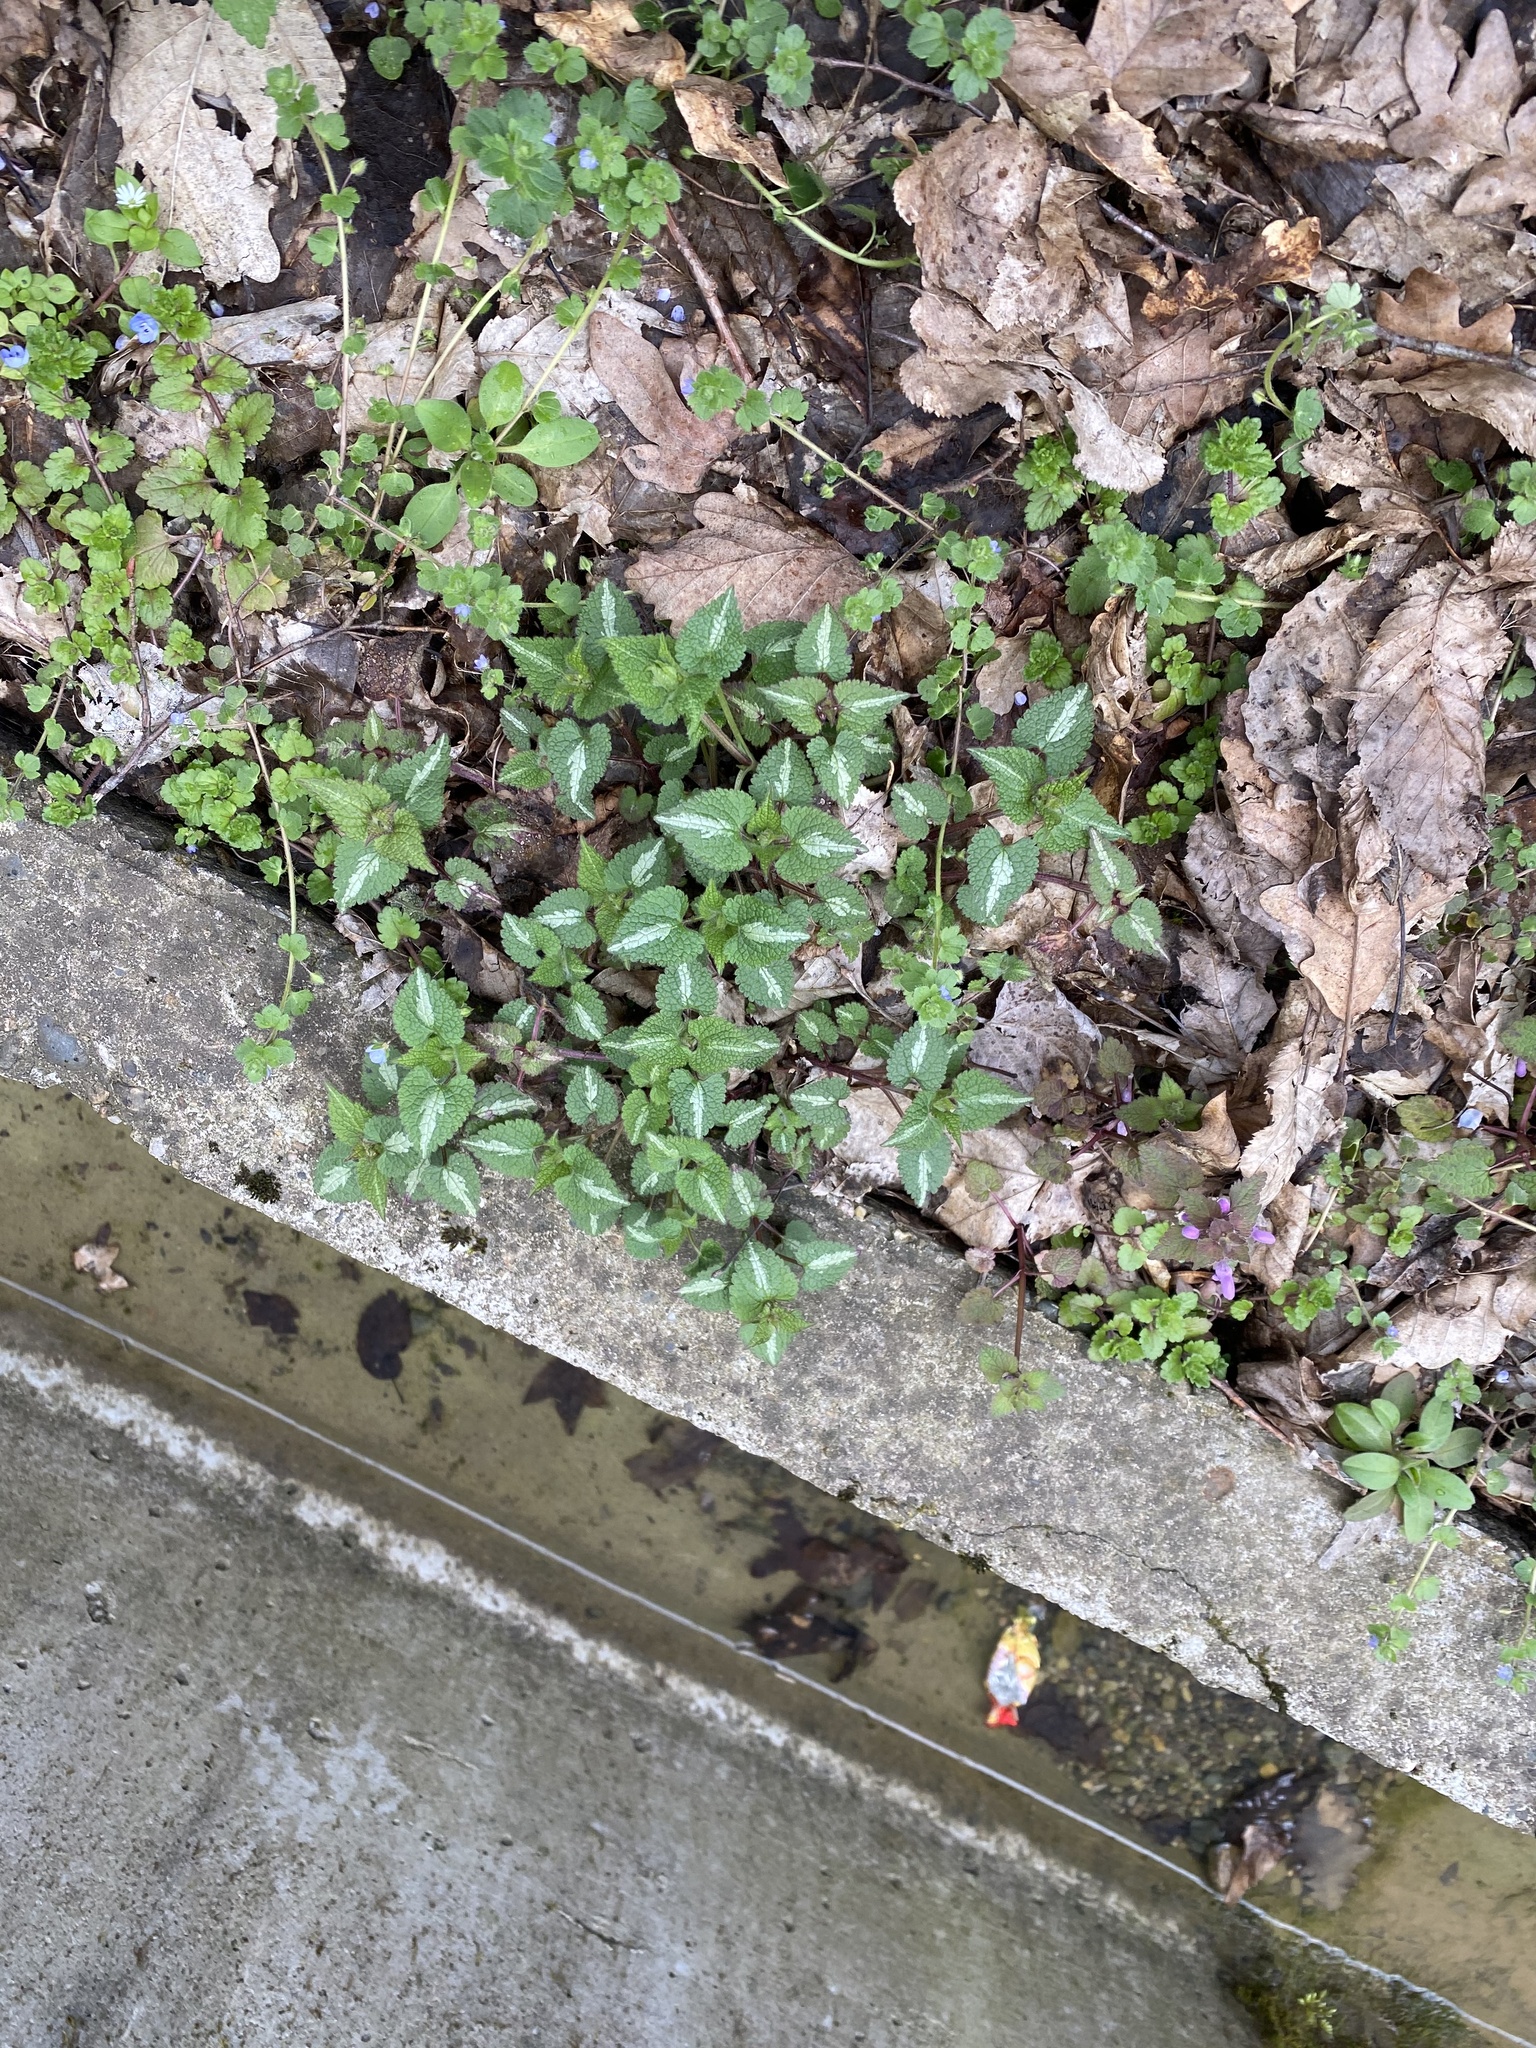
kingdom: Plantae
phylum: Tracheophyta
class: Magnoliopsida
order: Lamiales
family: Lamiaceae
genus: Lamium
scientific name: Lamium maculatum
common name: Spotted dead-nettle
